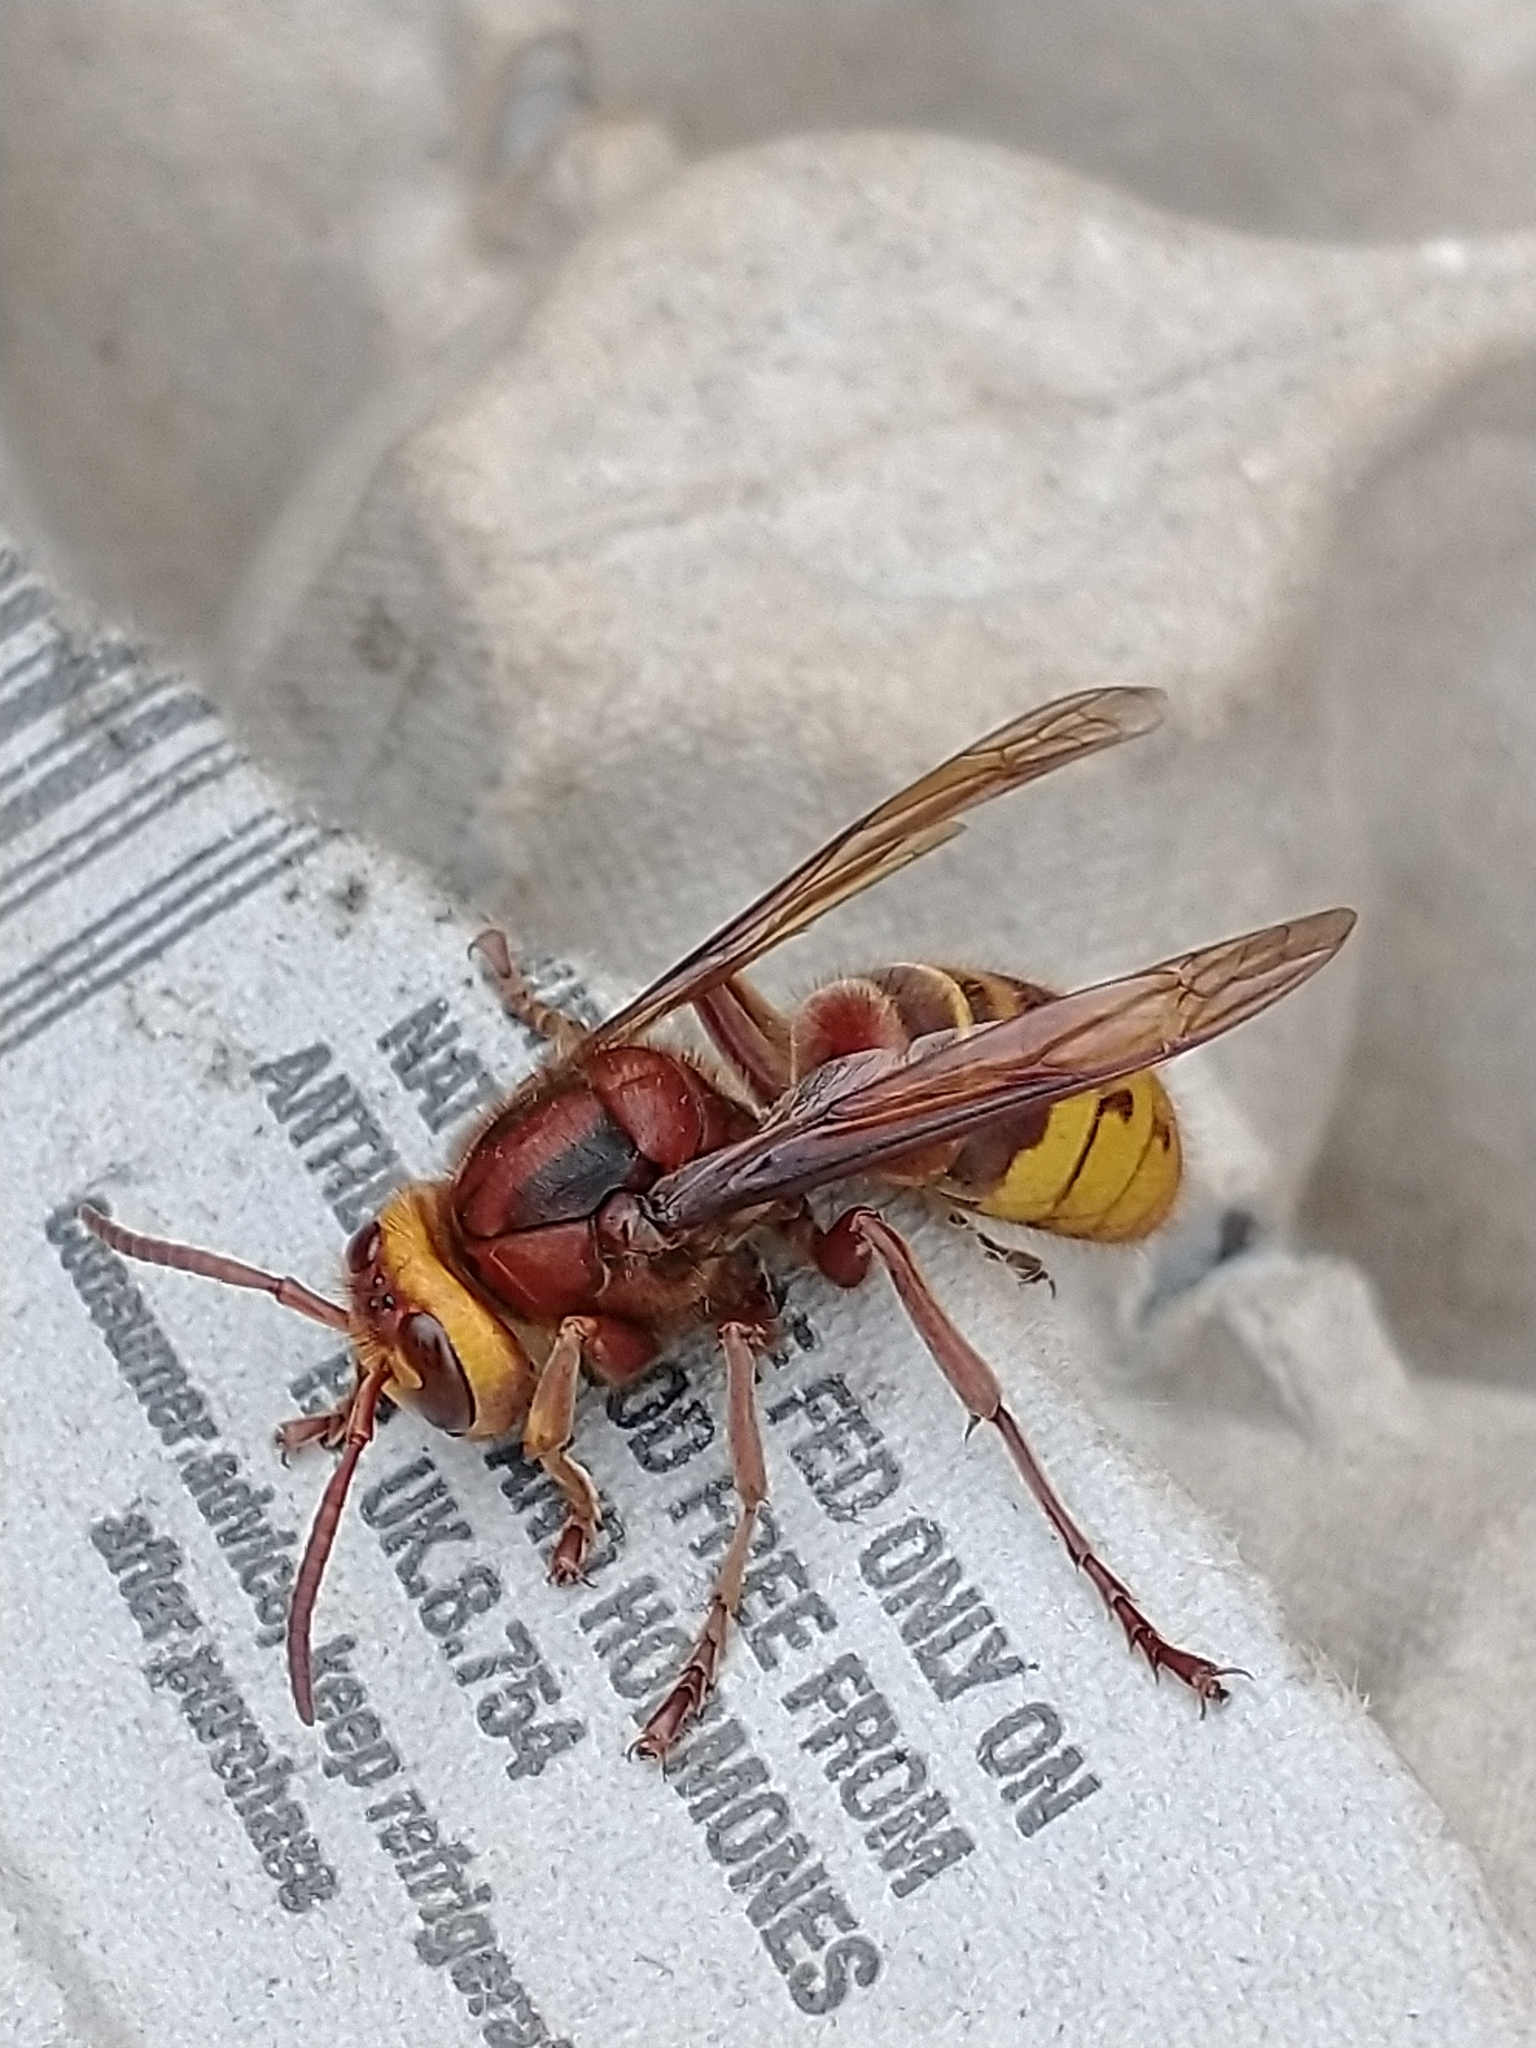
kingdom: Animalia
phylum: Arthropoda
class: Insecta
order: Hymenoptera
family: Vespidae
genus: Vespa
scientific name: Vespa crabro
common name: Hornet
